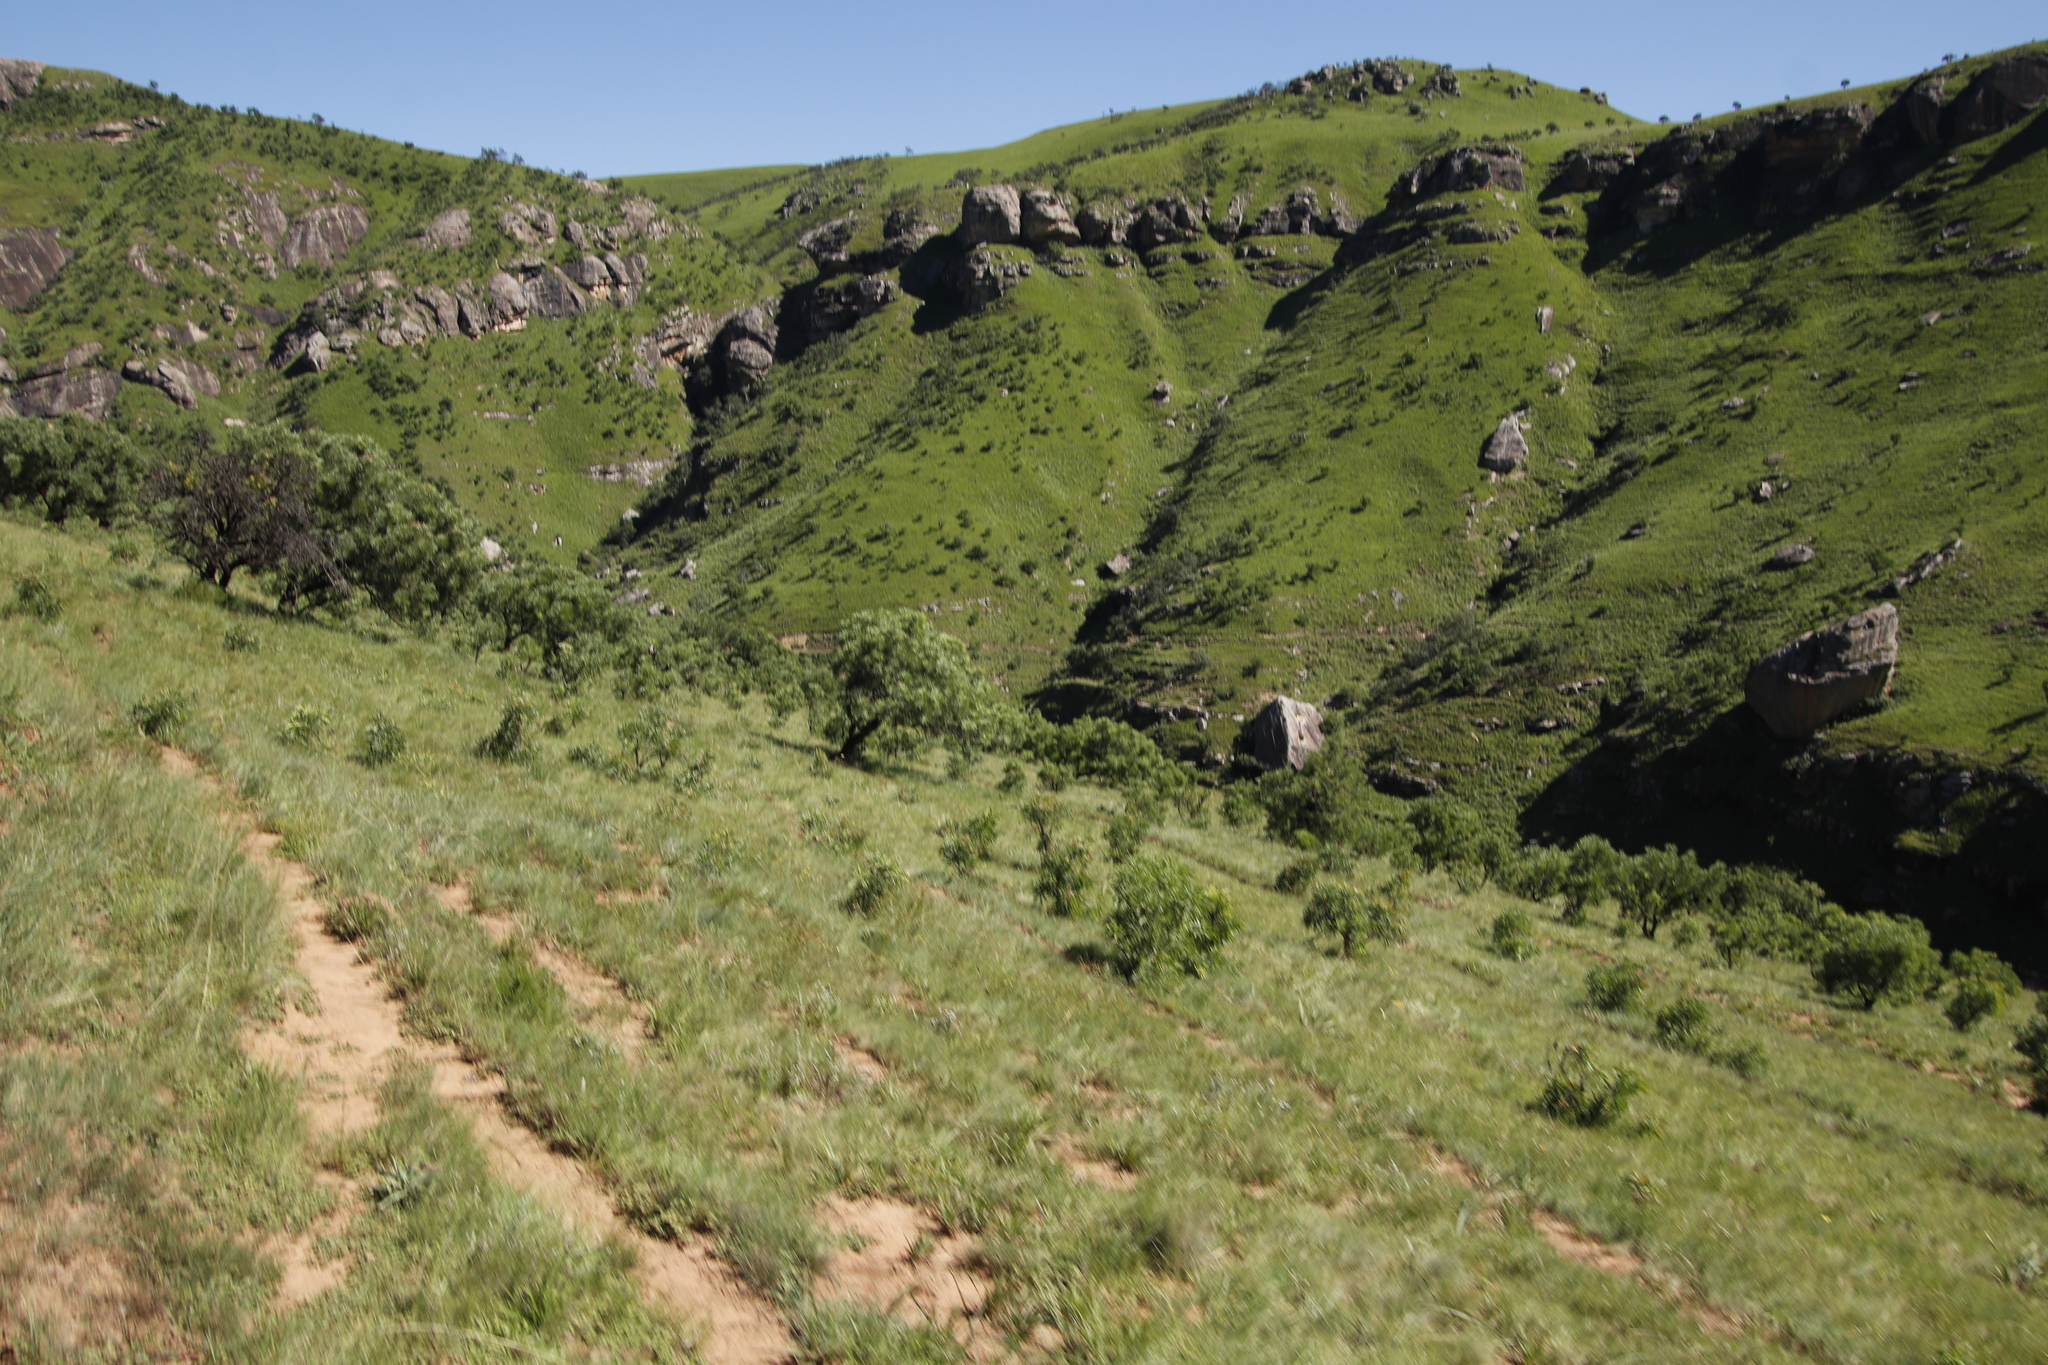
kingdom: Plantae
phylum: Tracheophyta
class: Magnoliopsida
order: Proteales
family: Proteaceae
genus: Protea
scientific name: Protea caffra
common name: Common sugarbush
